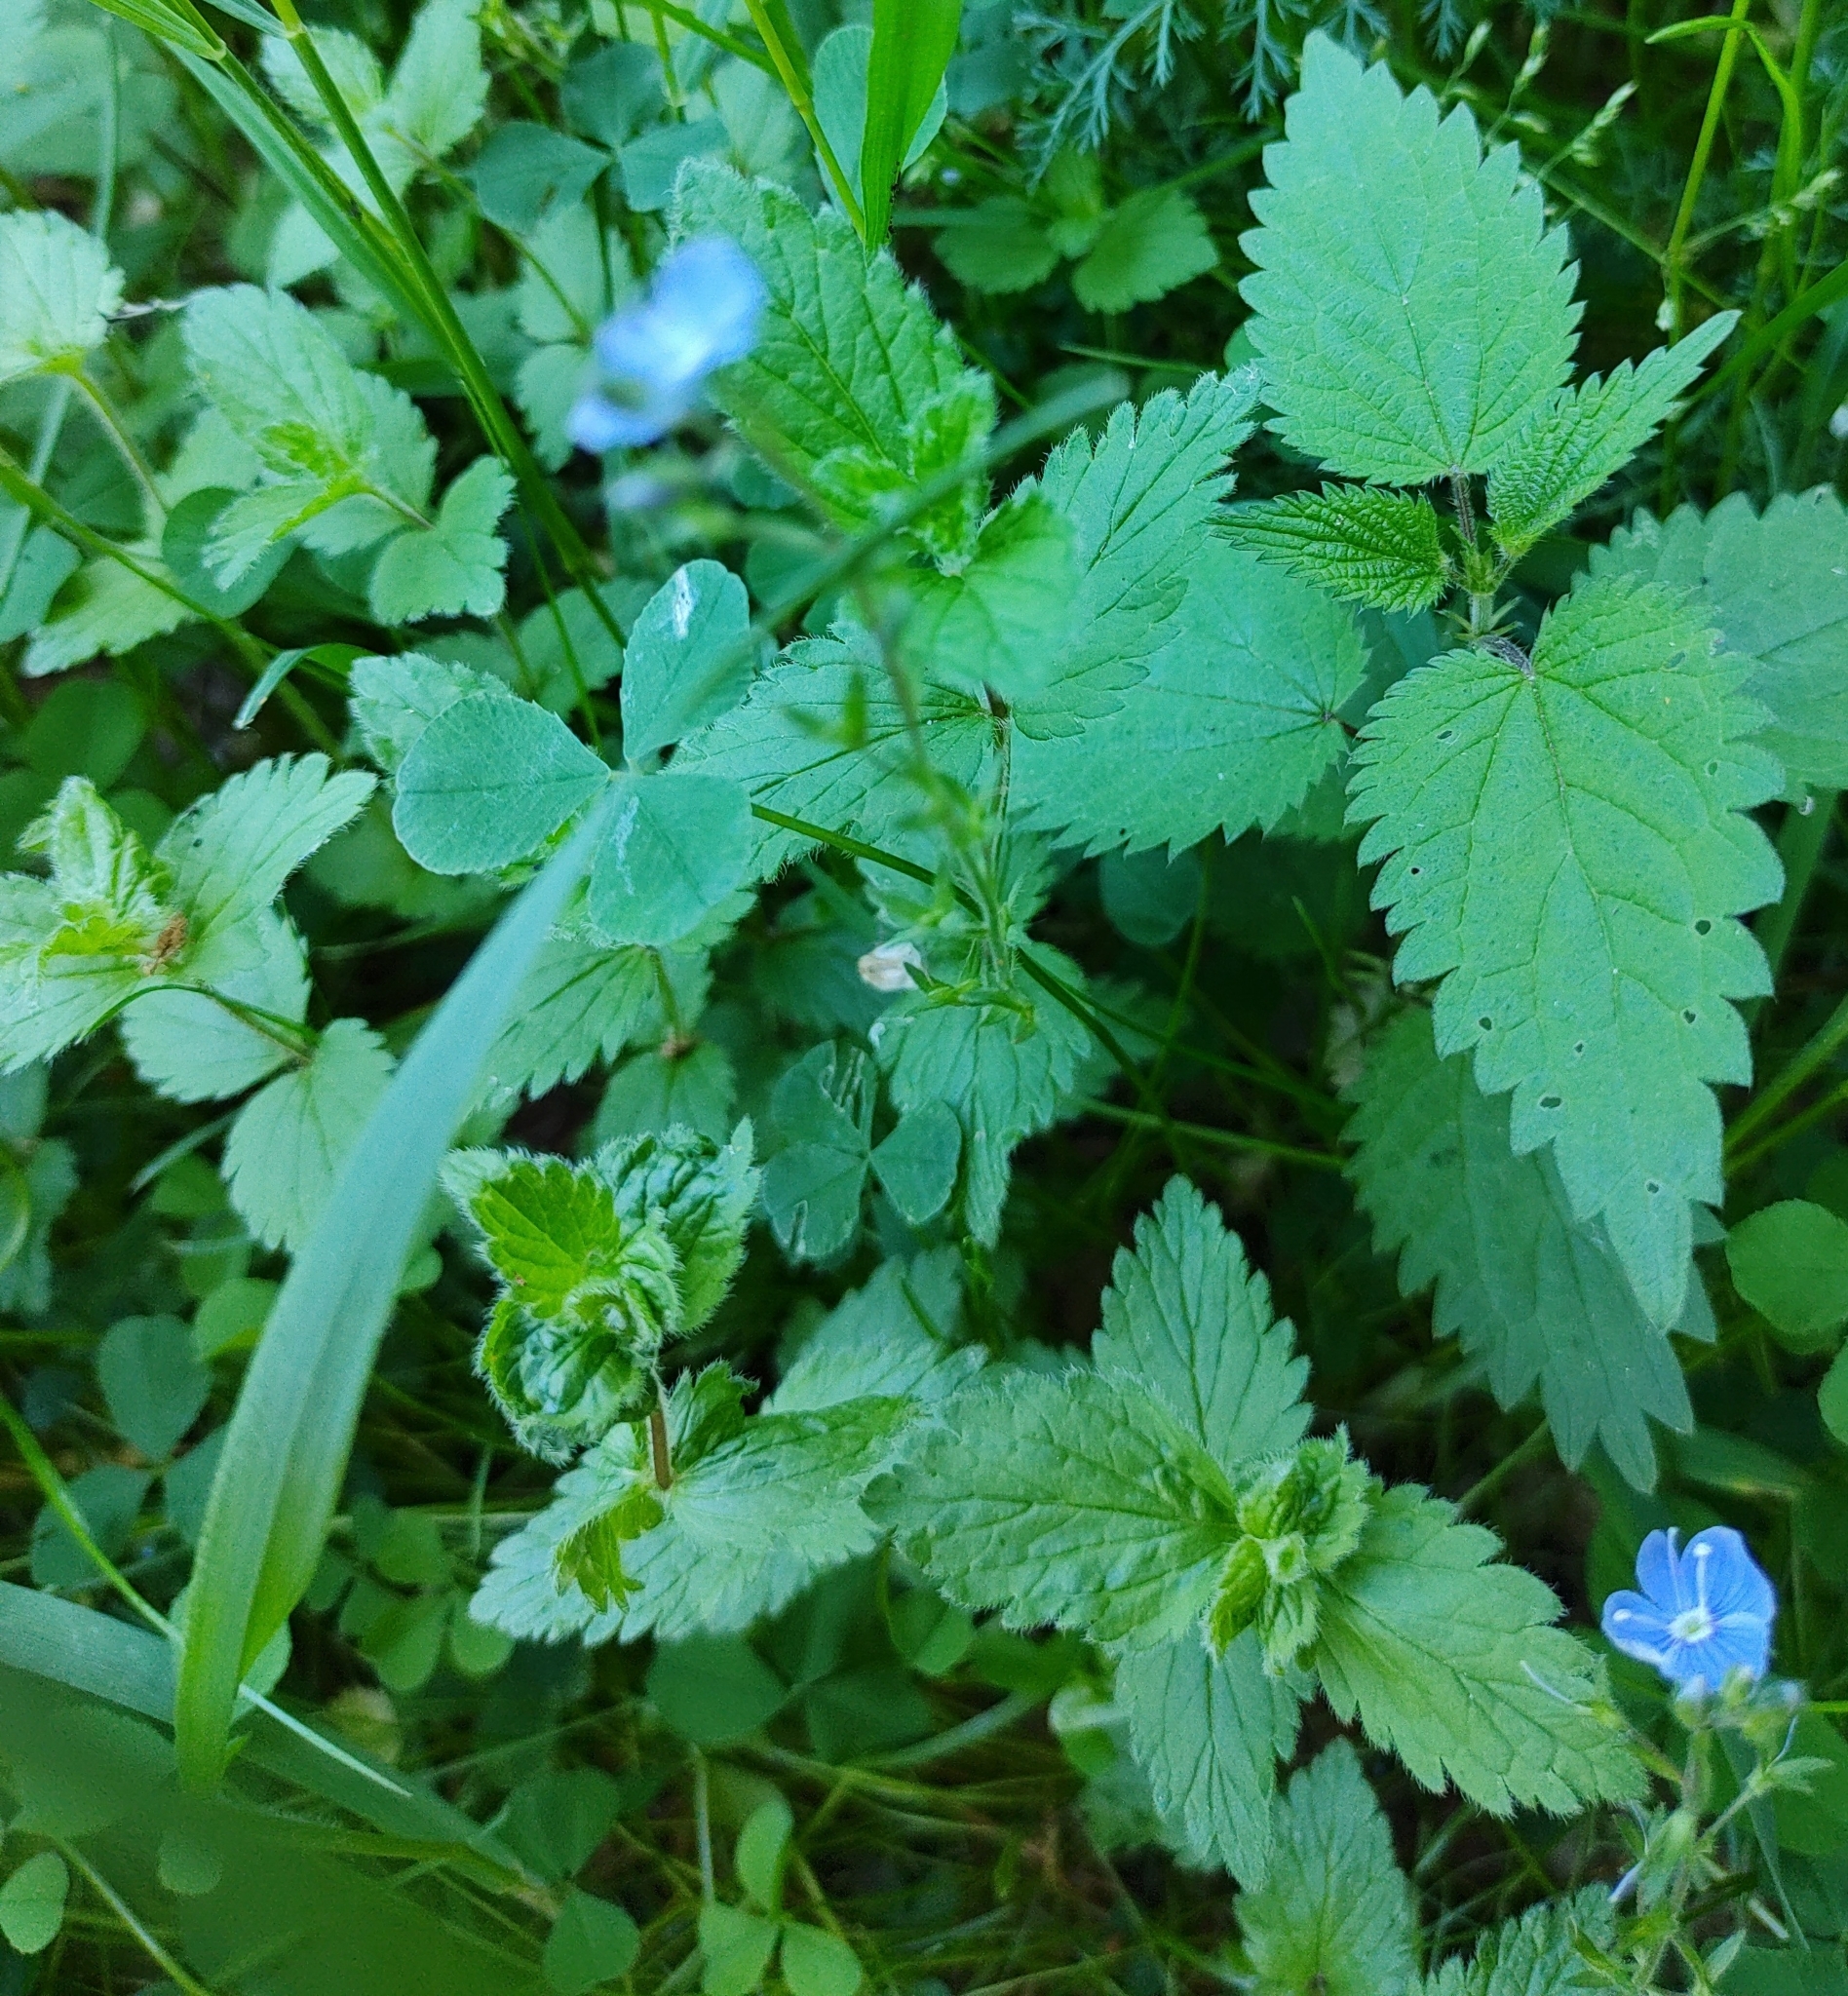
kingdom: Plantae
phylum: Tracheophyta
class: Magnoliopsida
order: Lamiales
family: Plantaginaceae
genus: Veronica
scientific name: Veronica chamaedrys
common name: Germander speedwell
